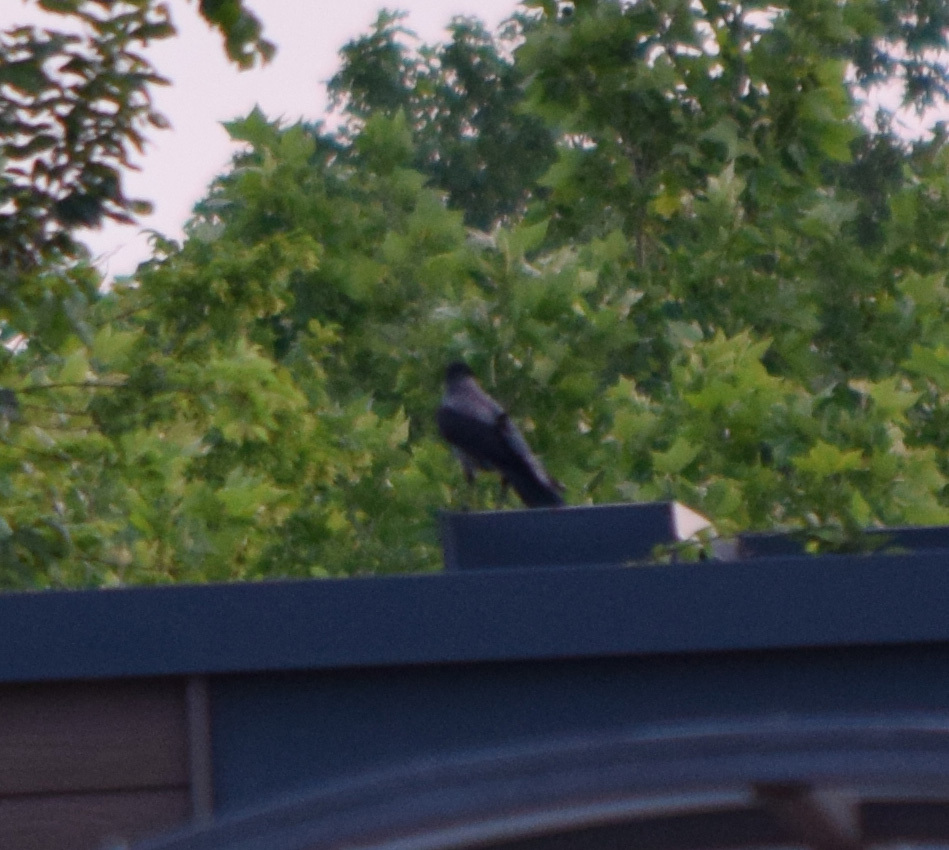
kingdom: Animalia
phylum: Chordata
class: Aves
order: Passeriformes
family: Corvidae
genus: Corvus
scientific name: Corvus cornix
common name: Hooded crow
